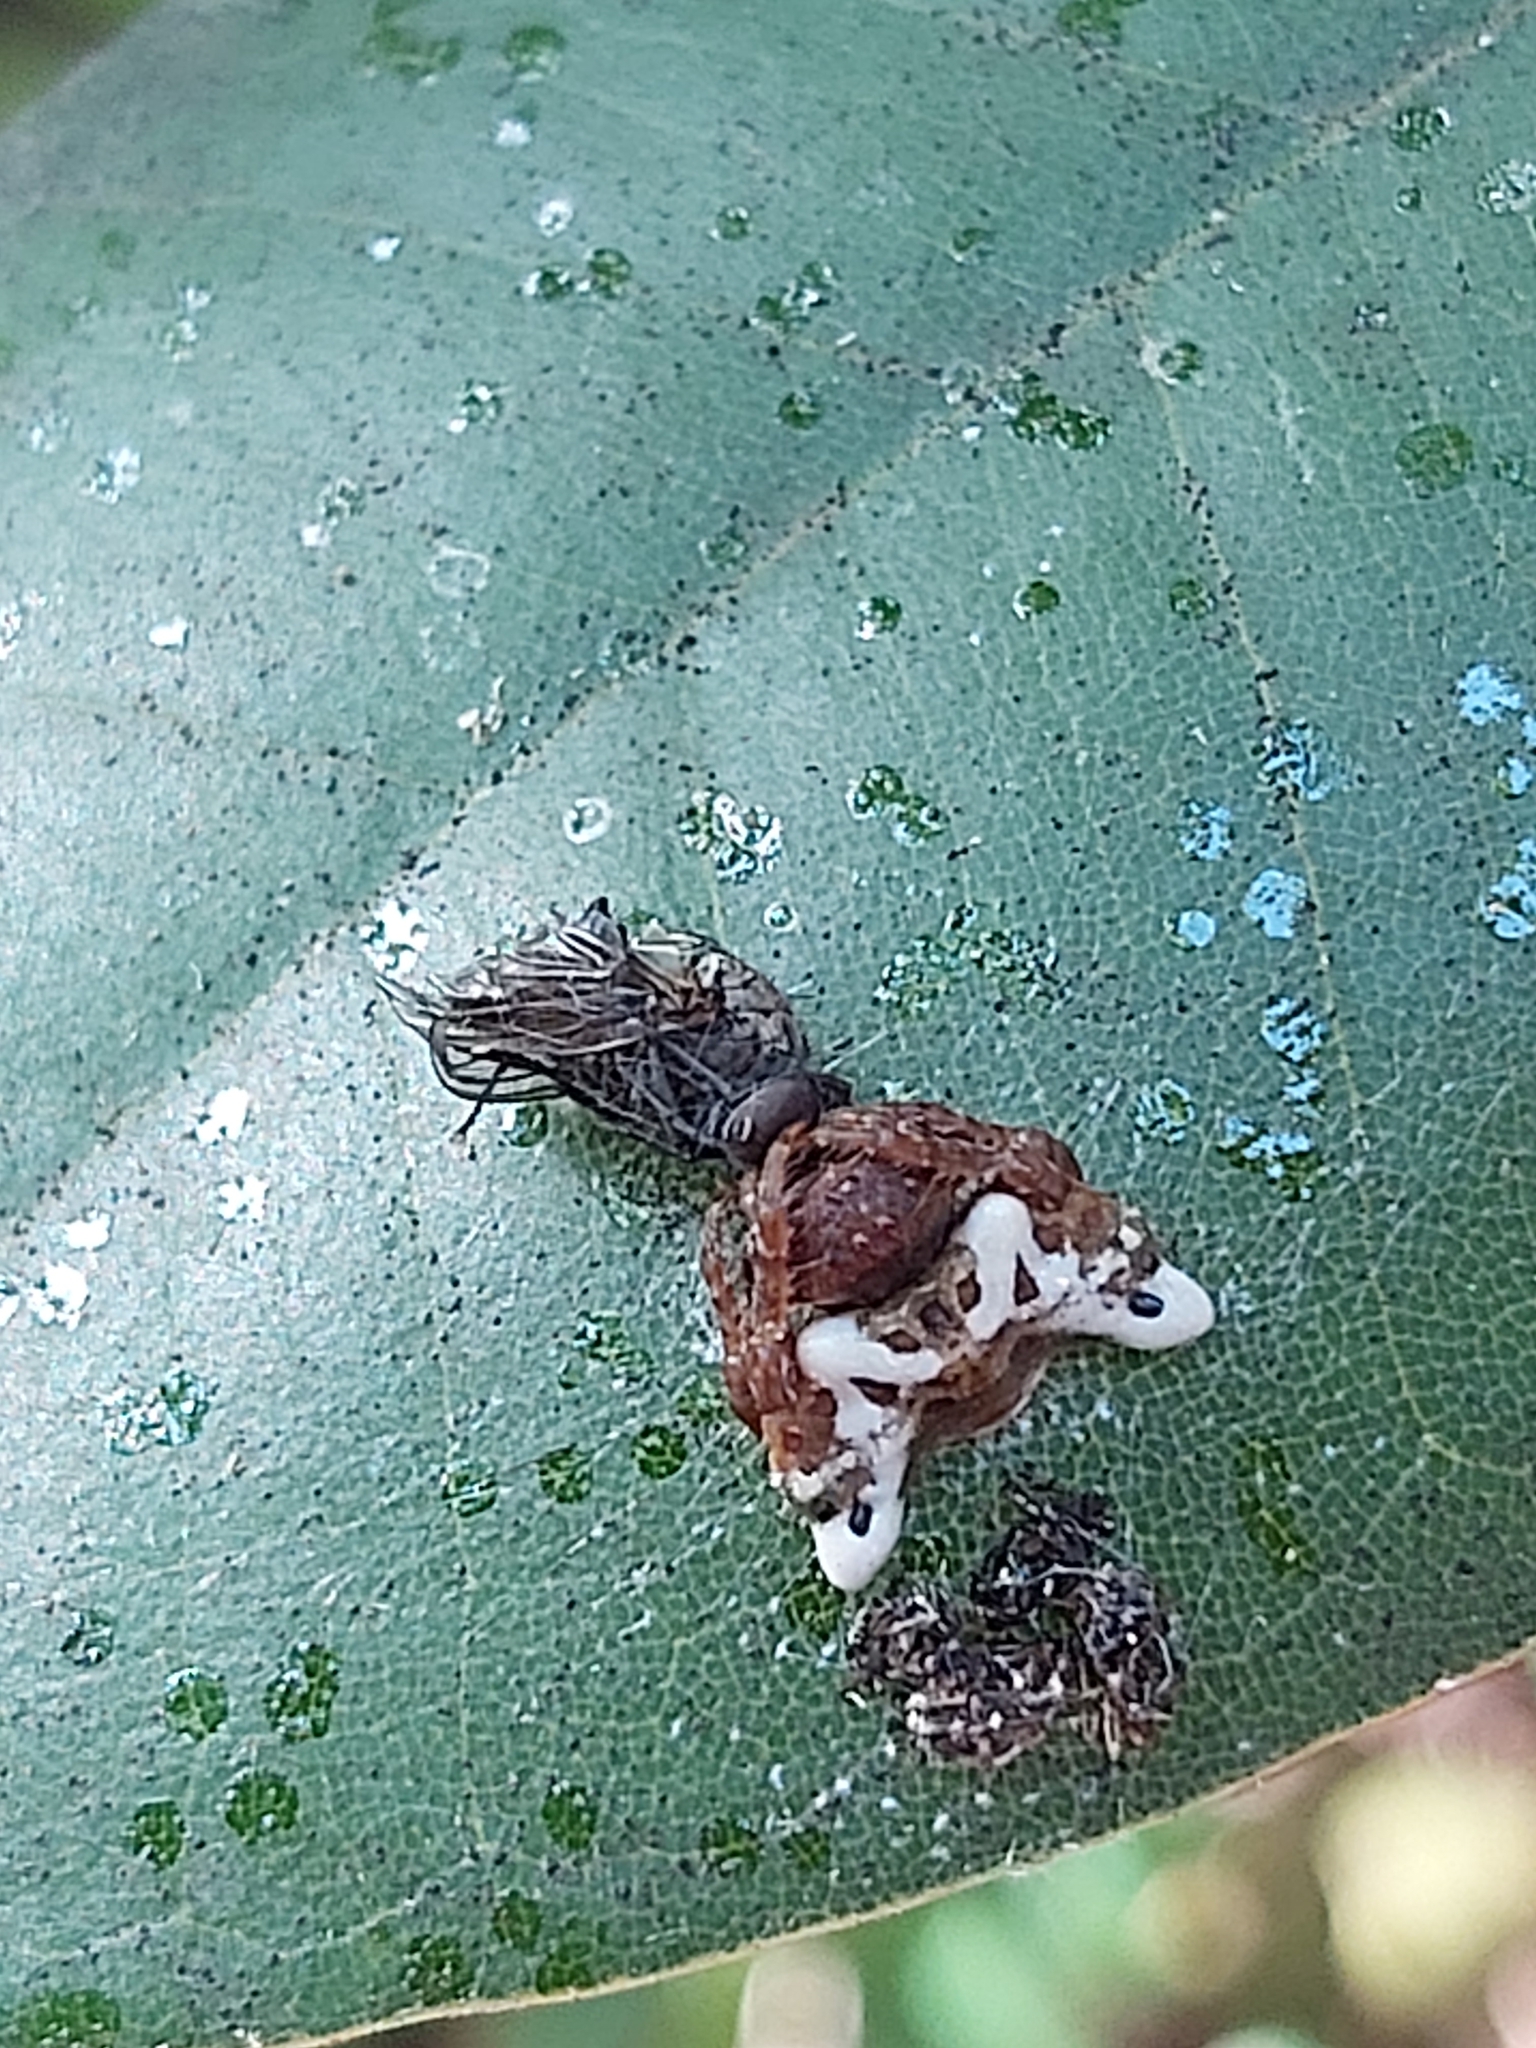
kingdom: Animalia
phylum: Arthropoda
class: Arachnida
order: Araneae
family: Arkyidae
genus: Arkys
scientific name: Arkys curtulus
